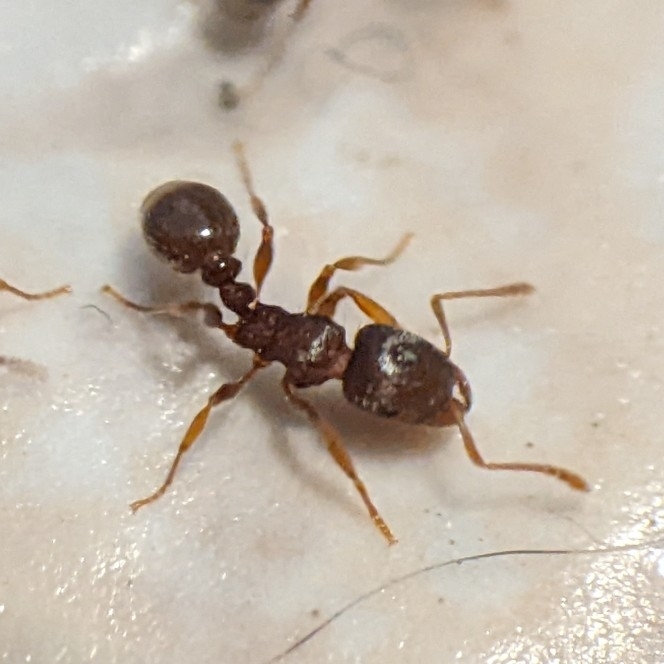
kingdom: Animalia
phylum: Arthropoda
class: Insecta
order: Hymenoptera
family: Formicidae
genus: Tetramorium
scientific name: Tetramorium immigrans
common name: Pavement ant
